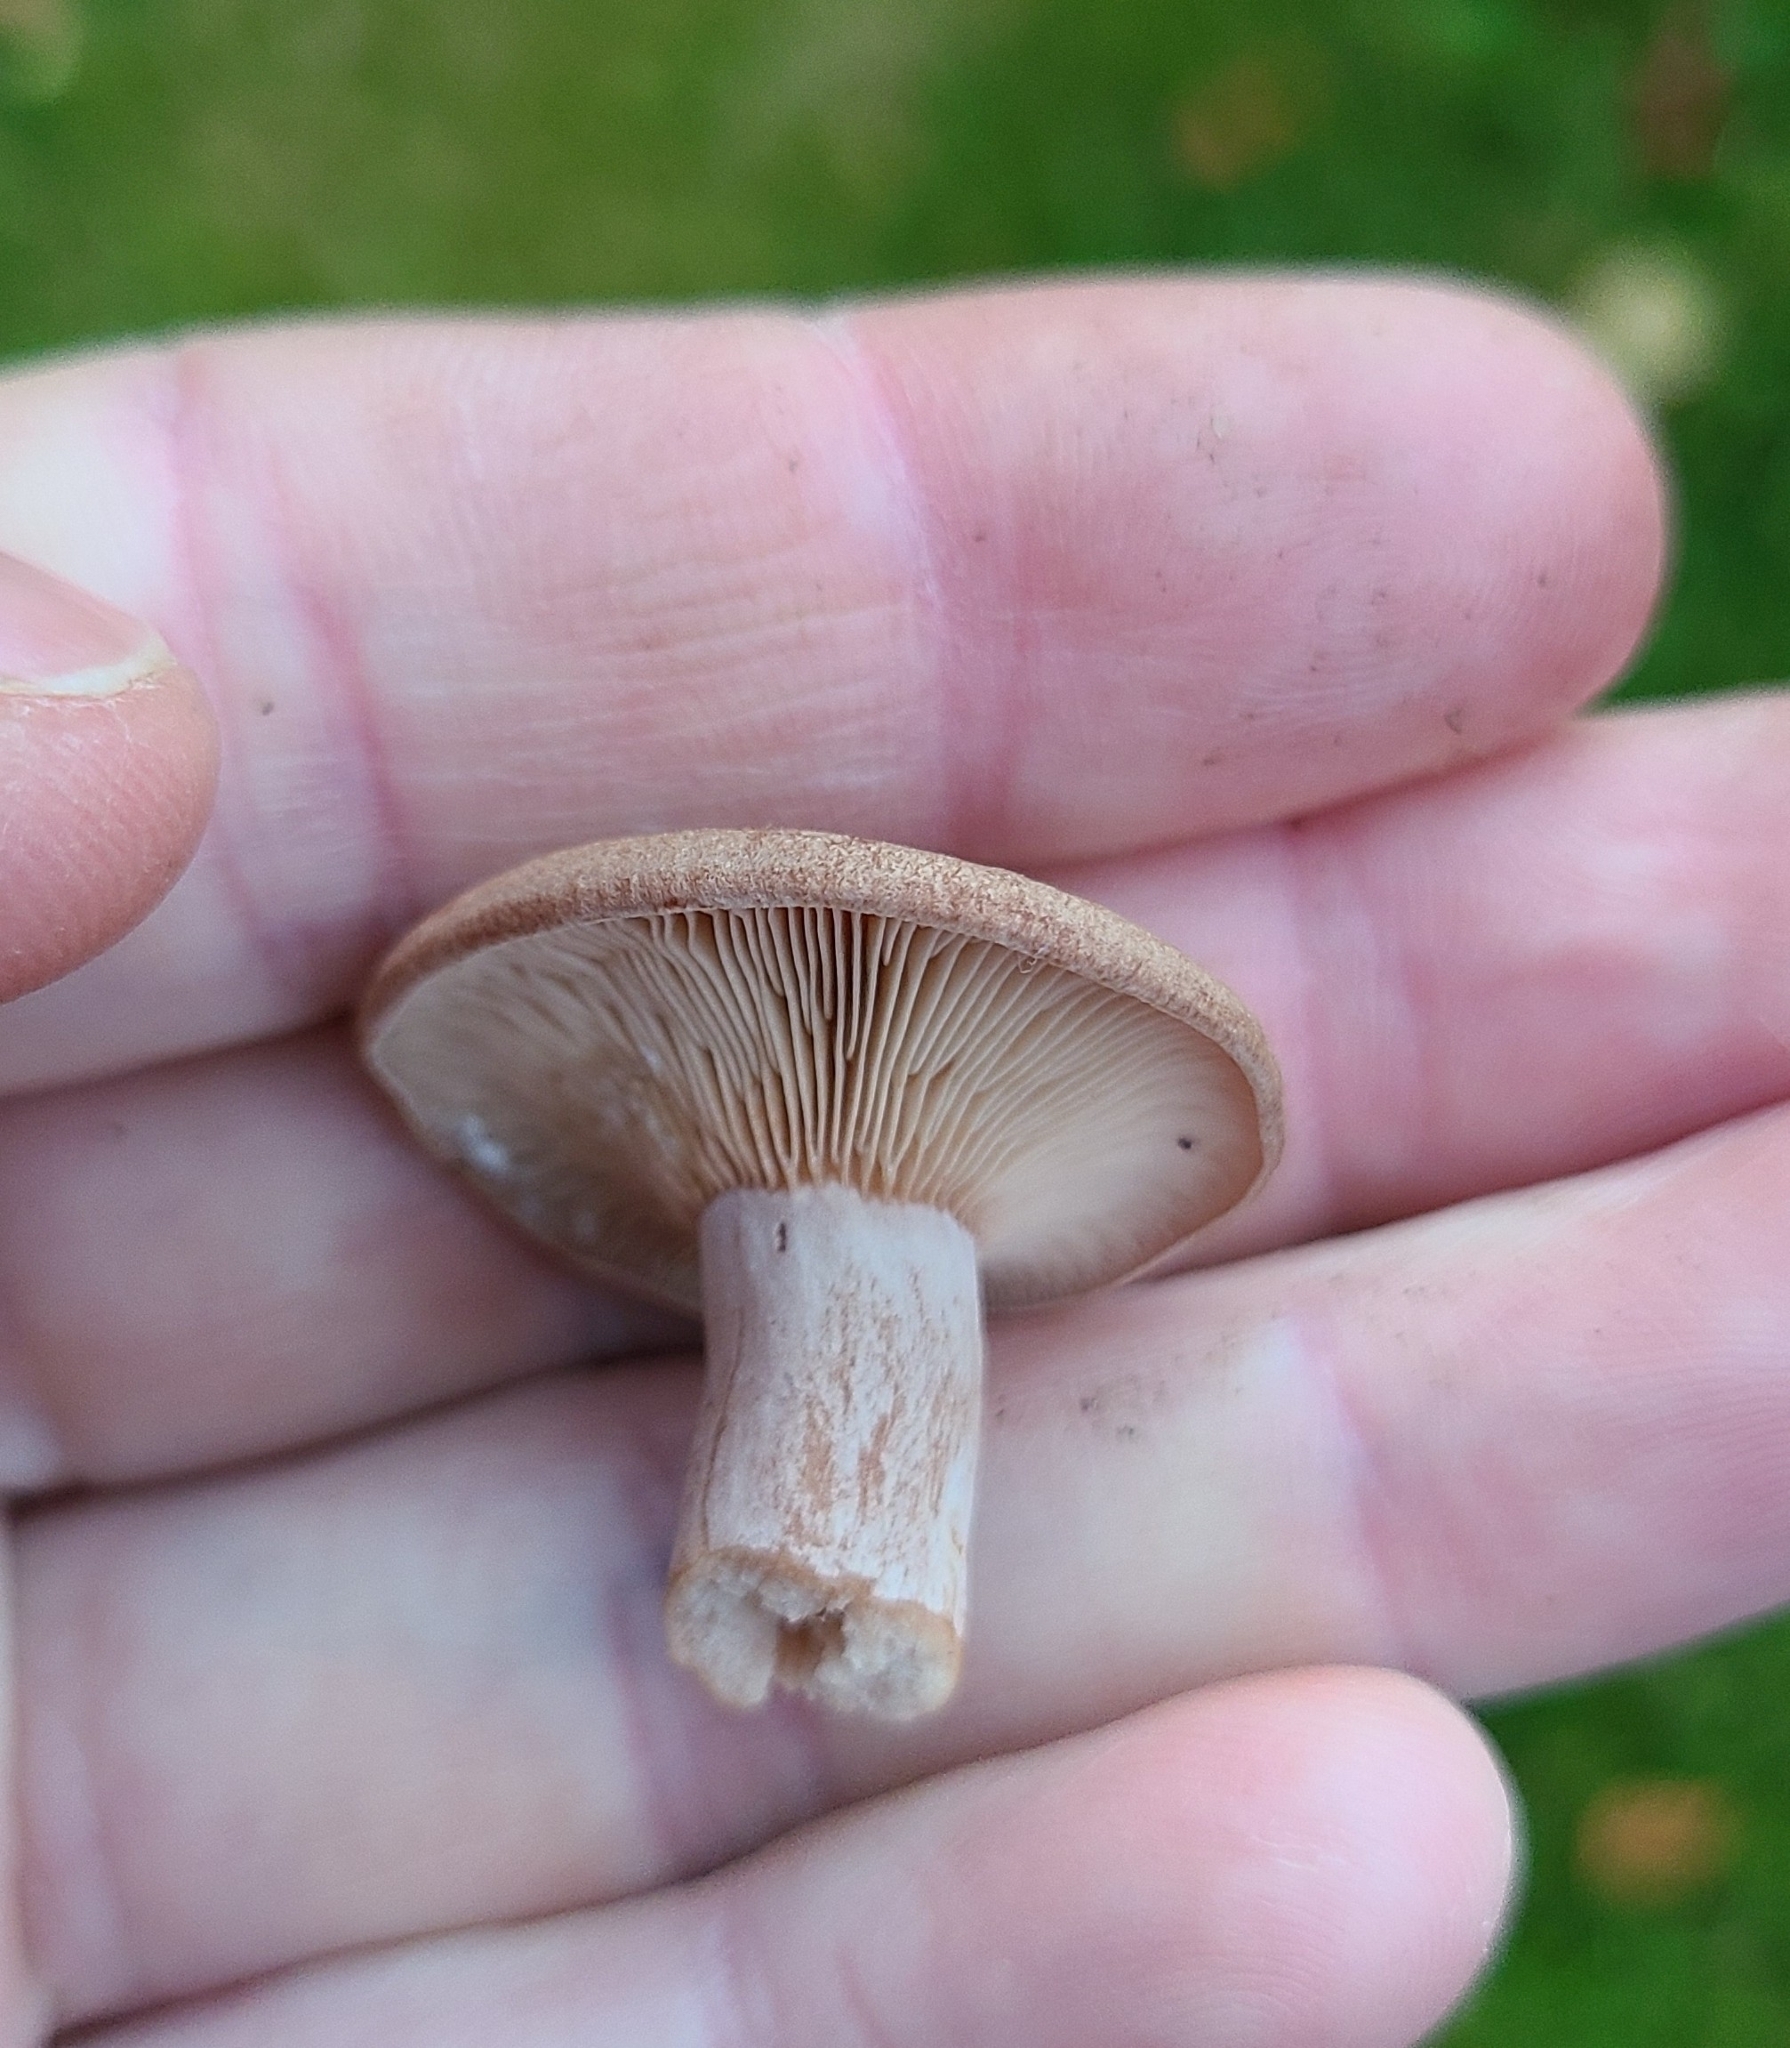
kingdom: Fungi
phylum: Basidiomycota
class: Agaricomycetes
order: Russulales
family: Russulaceae
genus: Lactarius
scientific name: Lactarius glyciosmus
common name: Coconut milkcap
